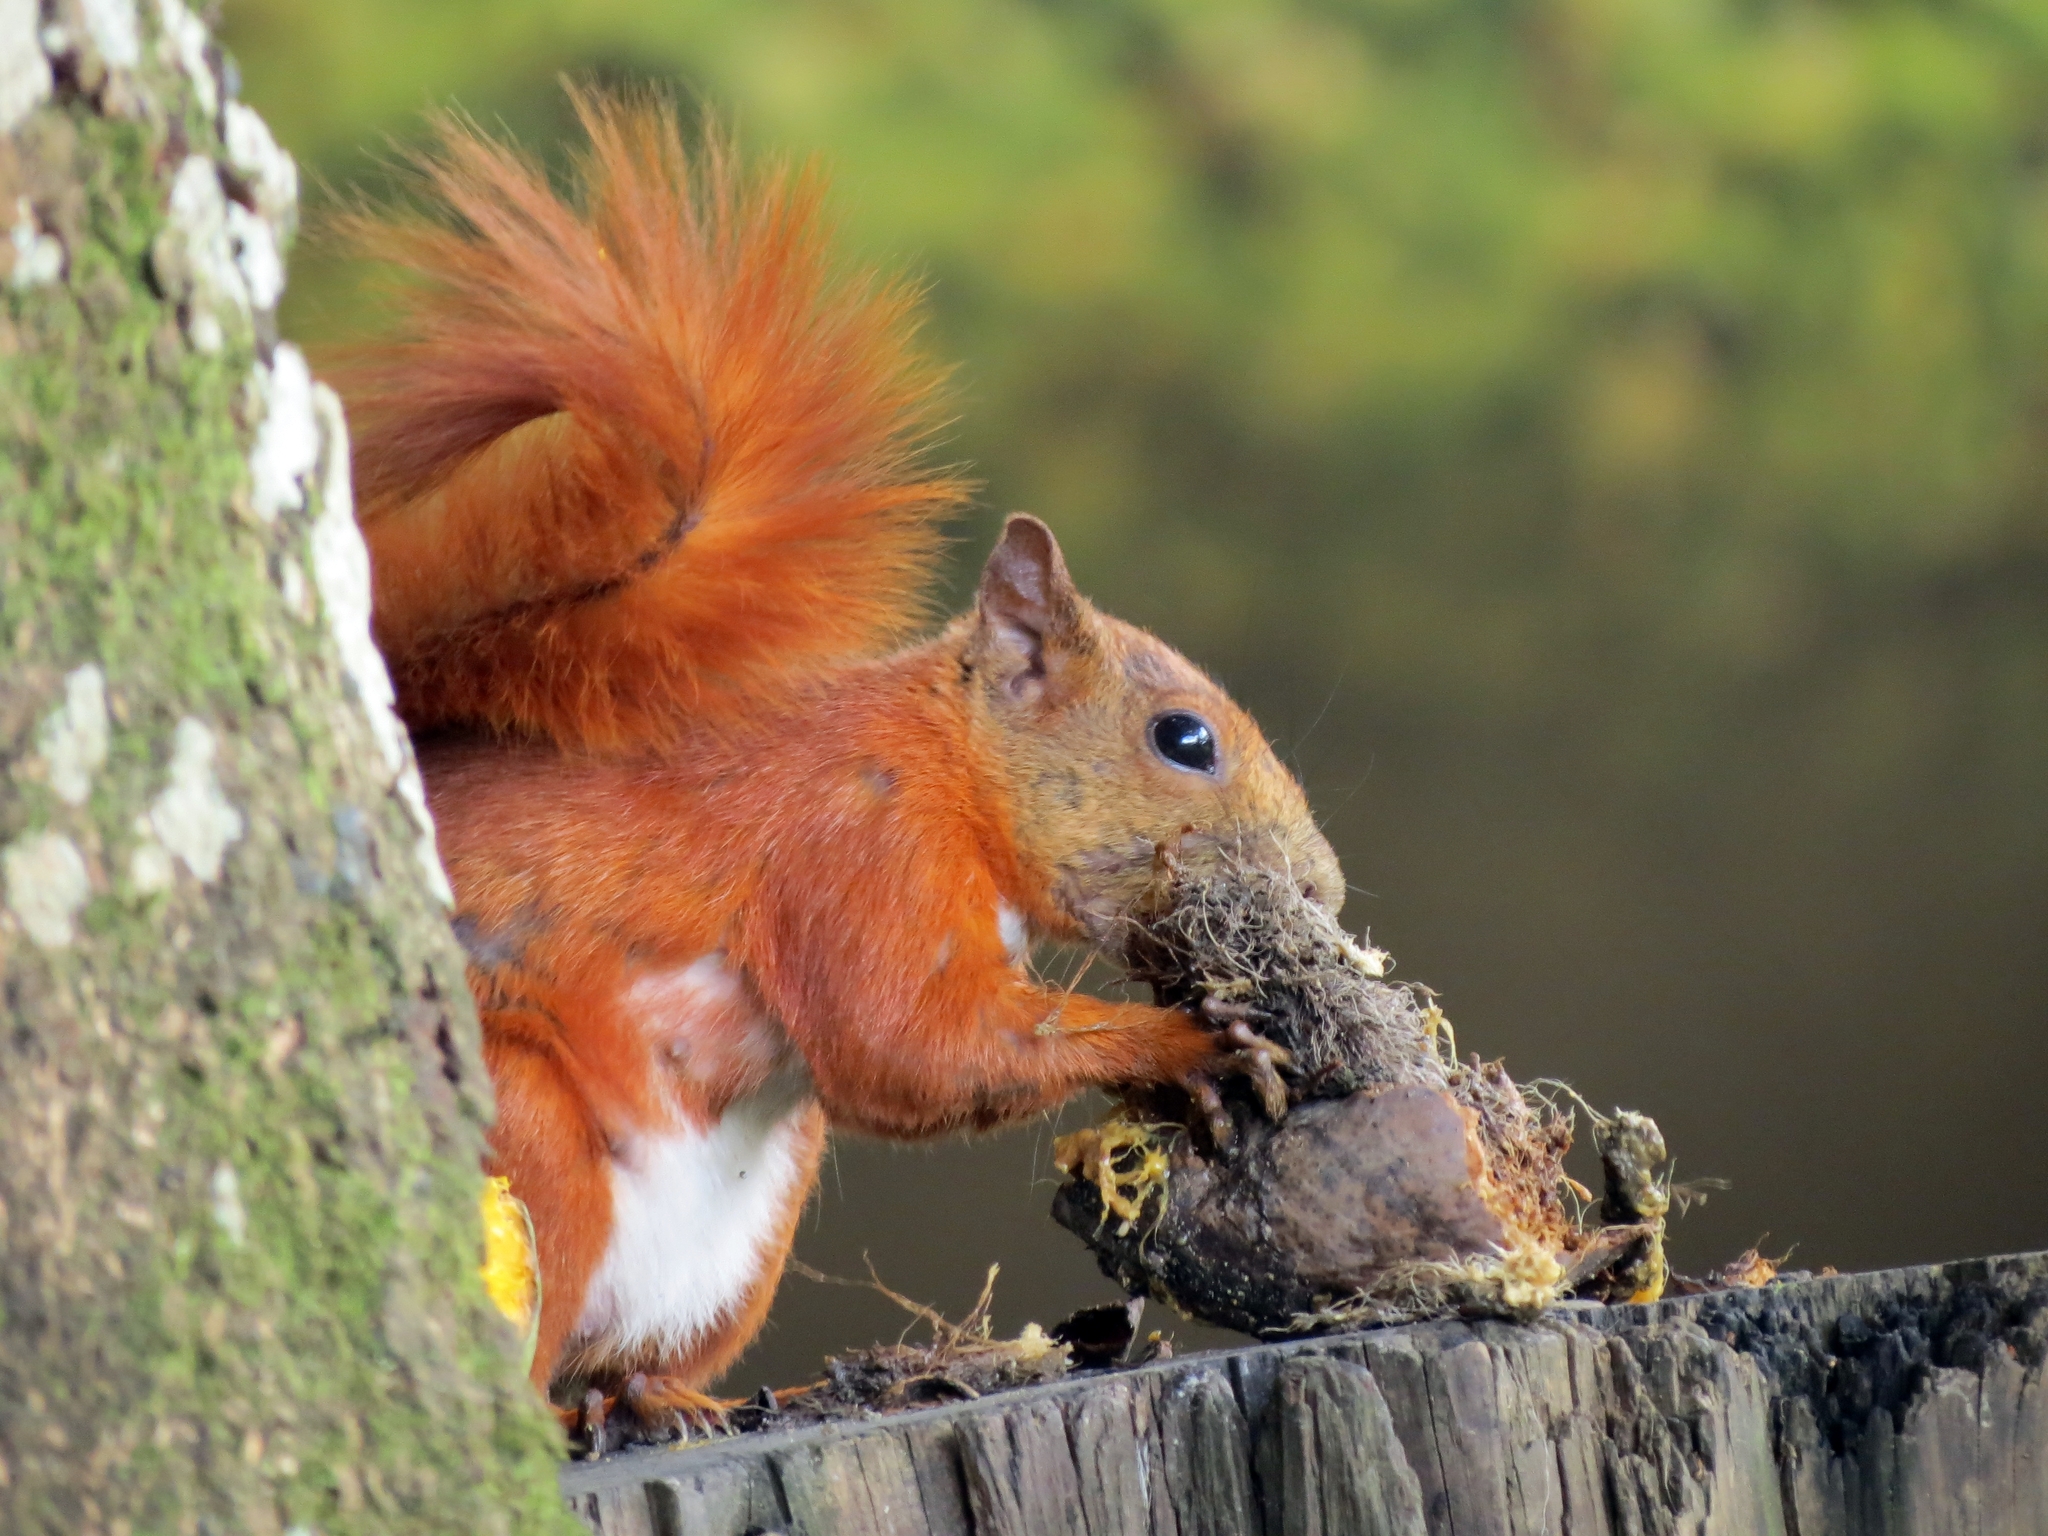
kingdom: Animalia
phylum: Chordata
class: Mammalia
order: Rodentia
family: Sciuridae
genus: Sciurus
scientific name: Sciurus granatensis
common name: Red-tailed squirrel
